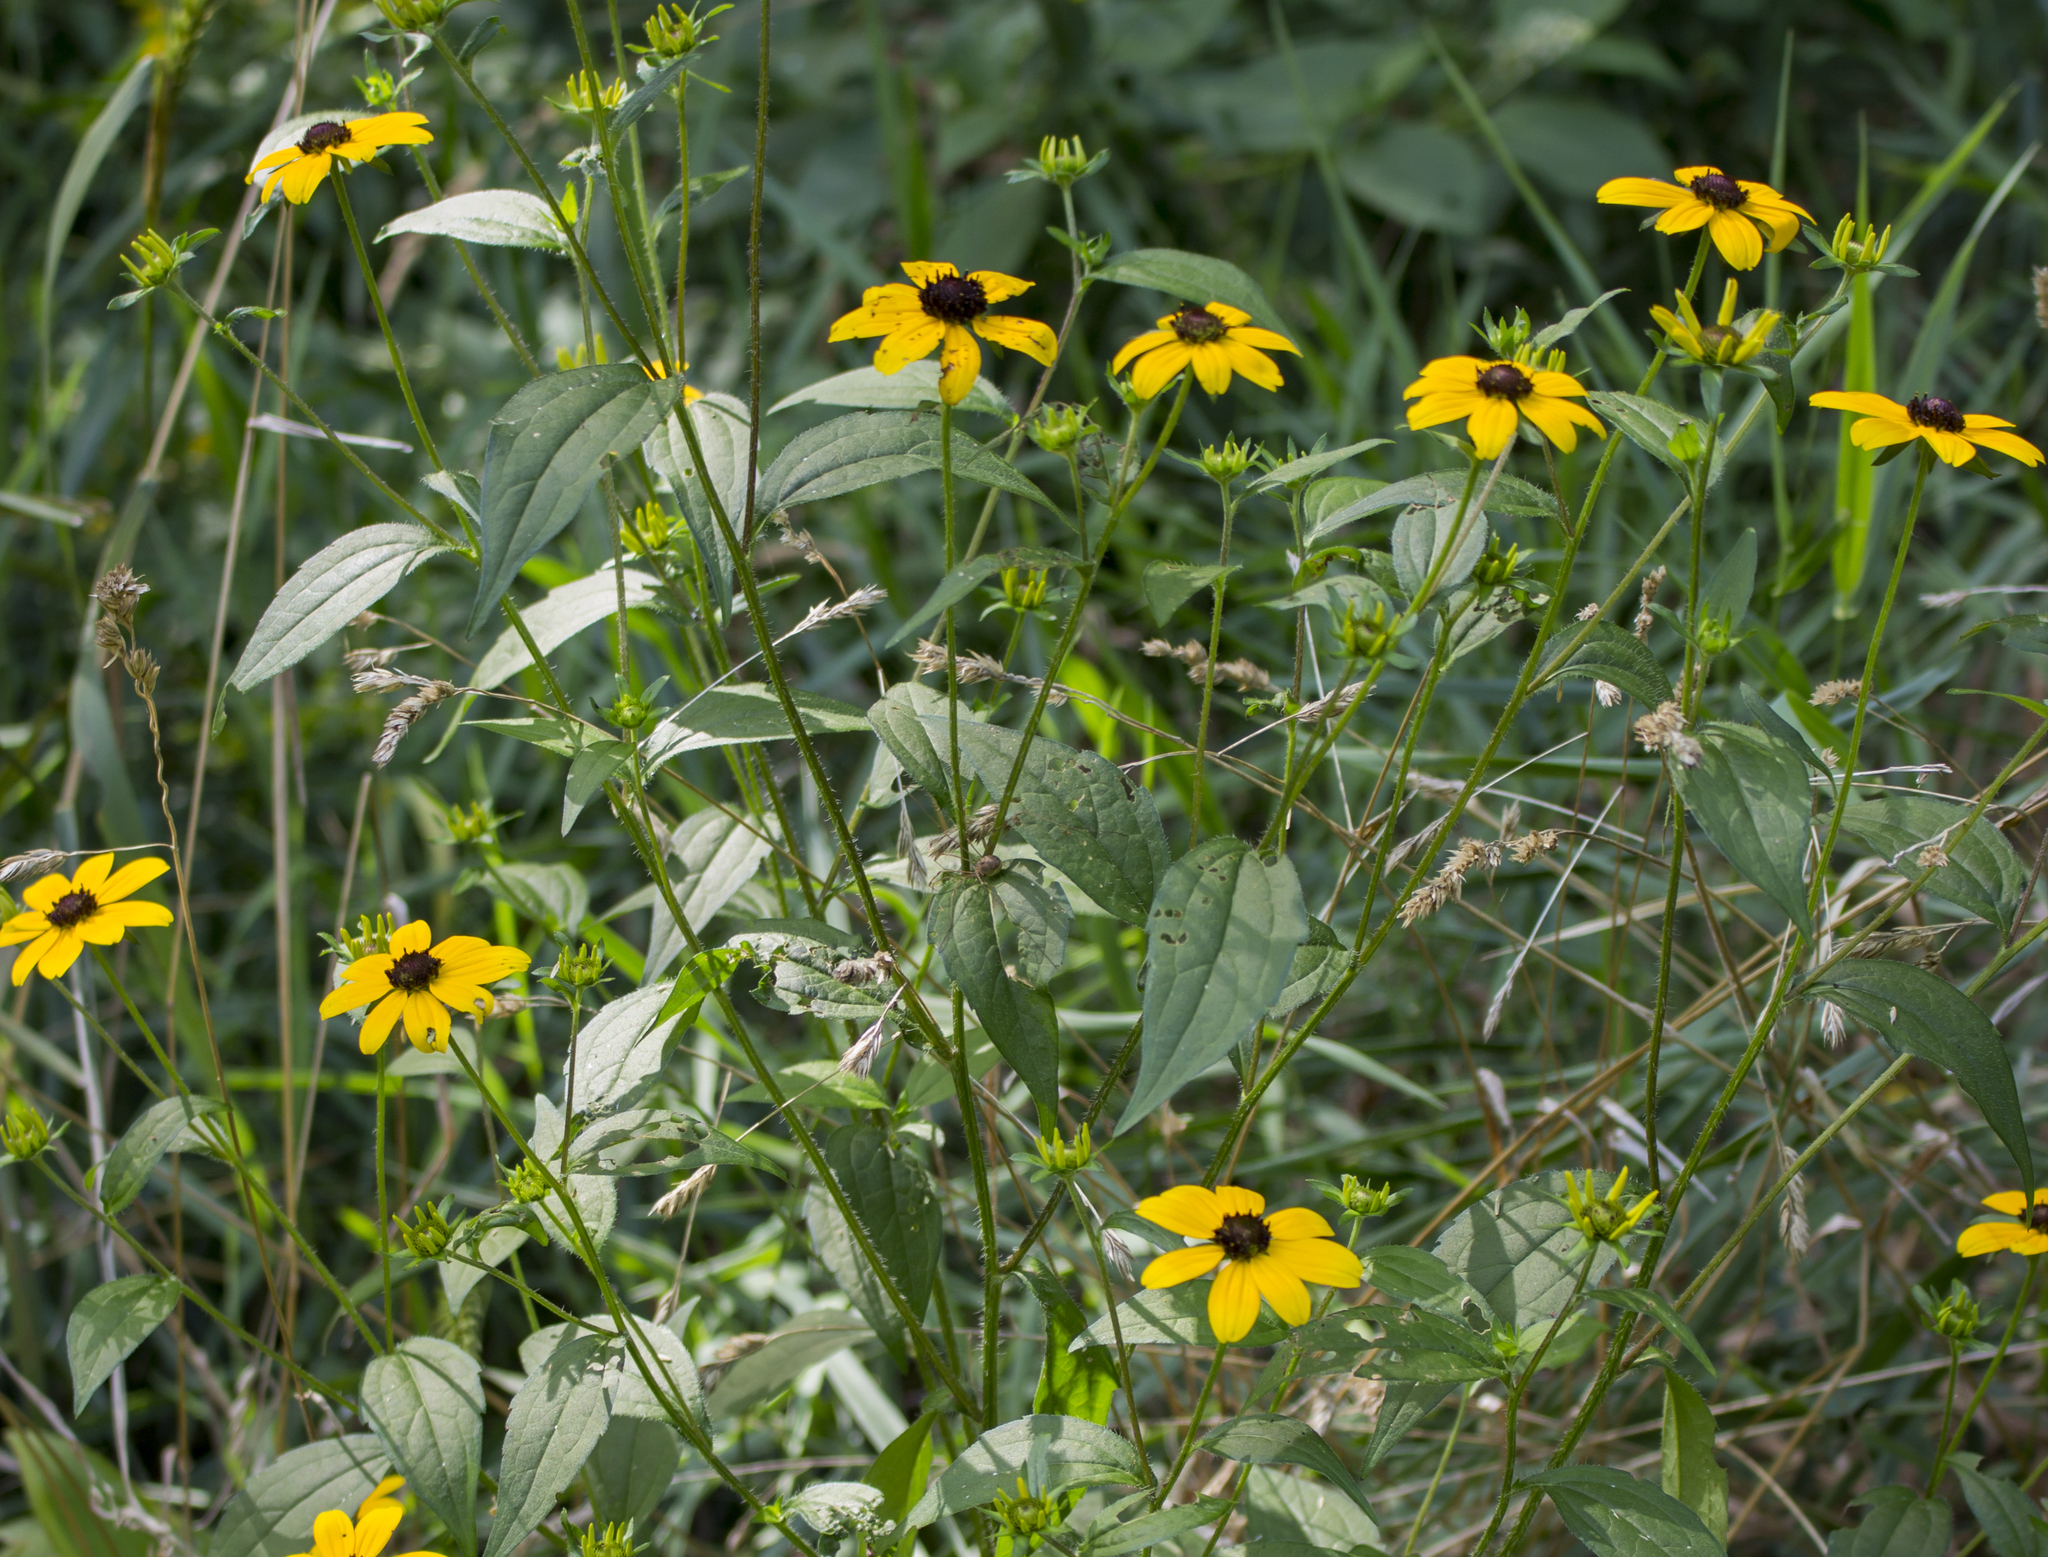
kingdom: Plantae
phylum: Tracheophyta
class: Magnoliopsida
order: Asterales
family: Asteraceae
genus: Rudbeckia
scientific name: Rudbeckia triloba
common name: Thin-leaved coneflower
